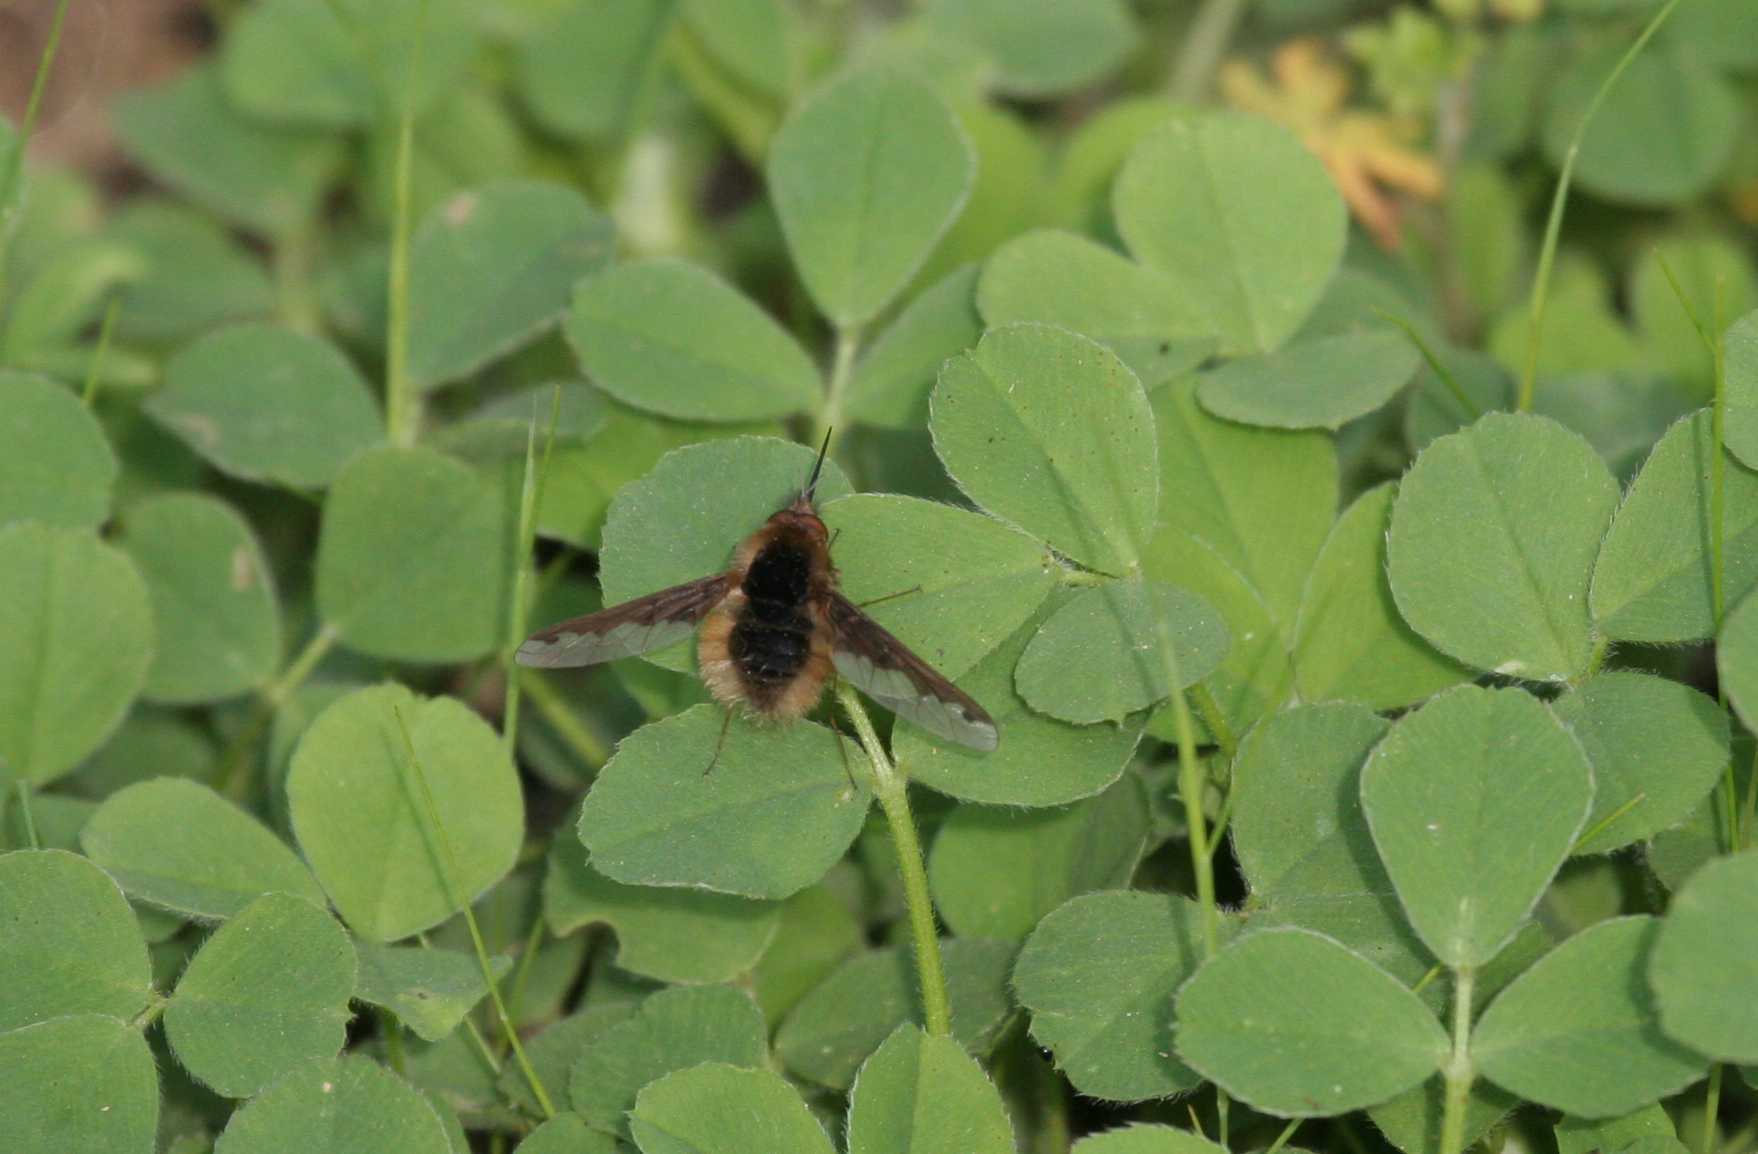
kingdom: Animalia
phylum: Arthropoda
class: Insecta
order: Diptera
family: Bombyliidae
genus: Bombylius
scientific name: Bombylius major
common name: Bee fly
